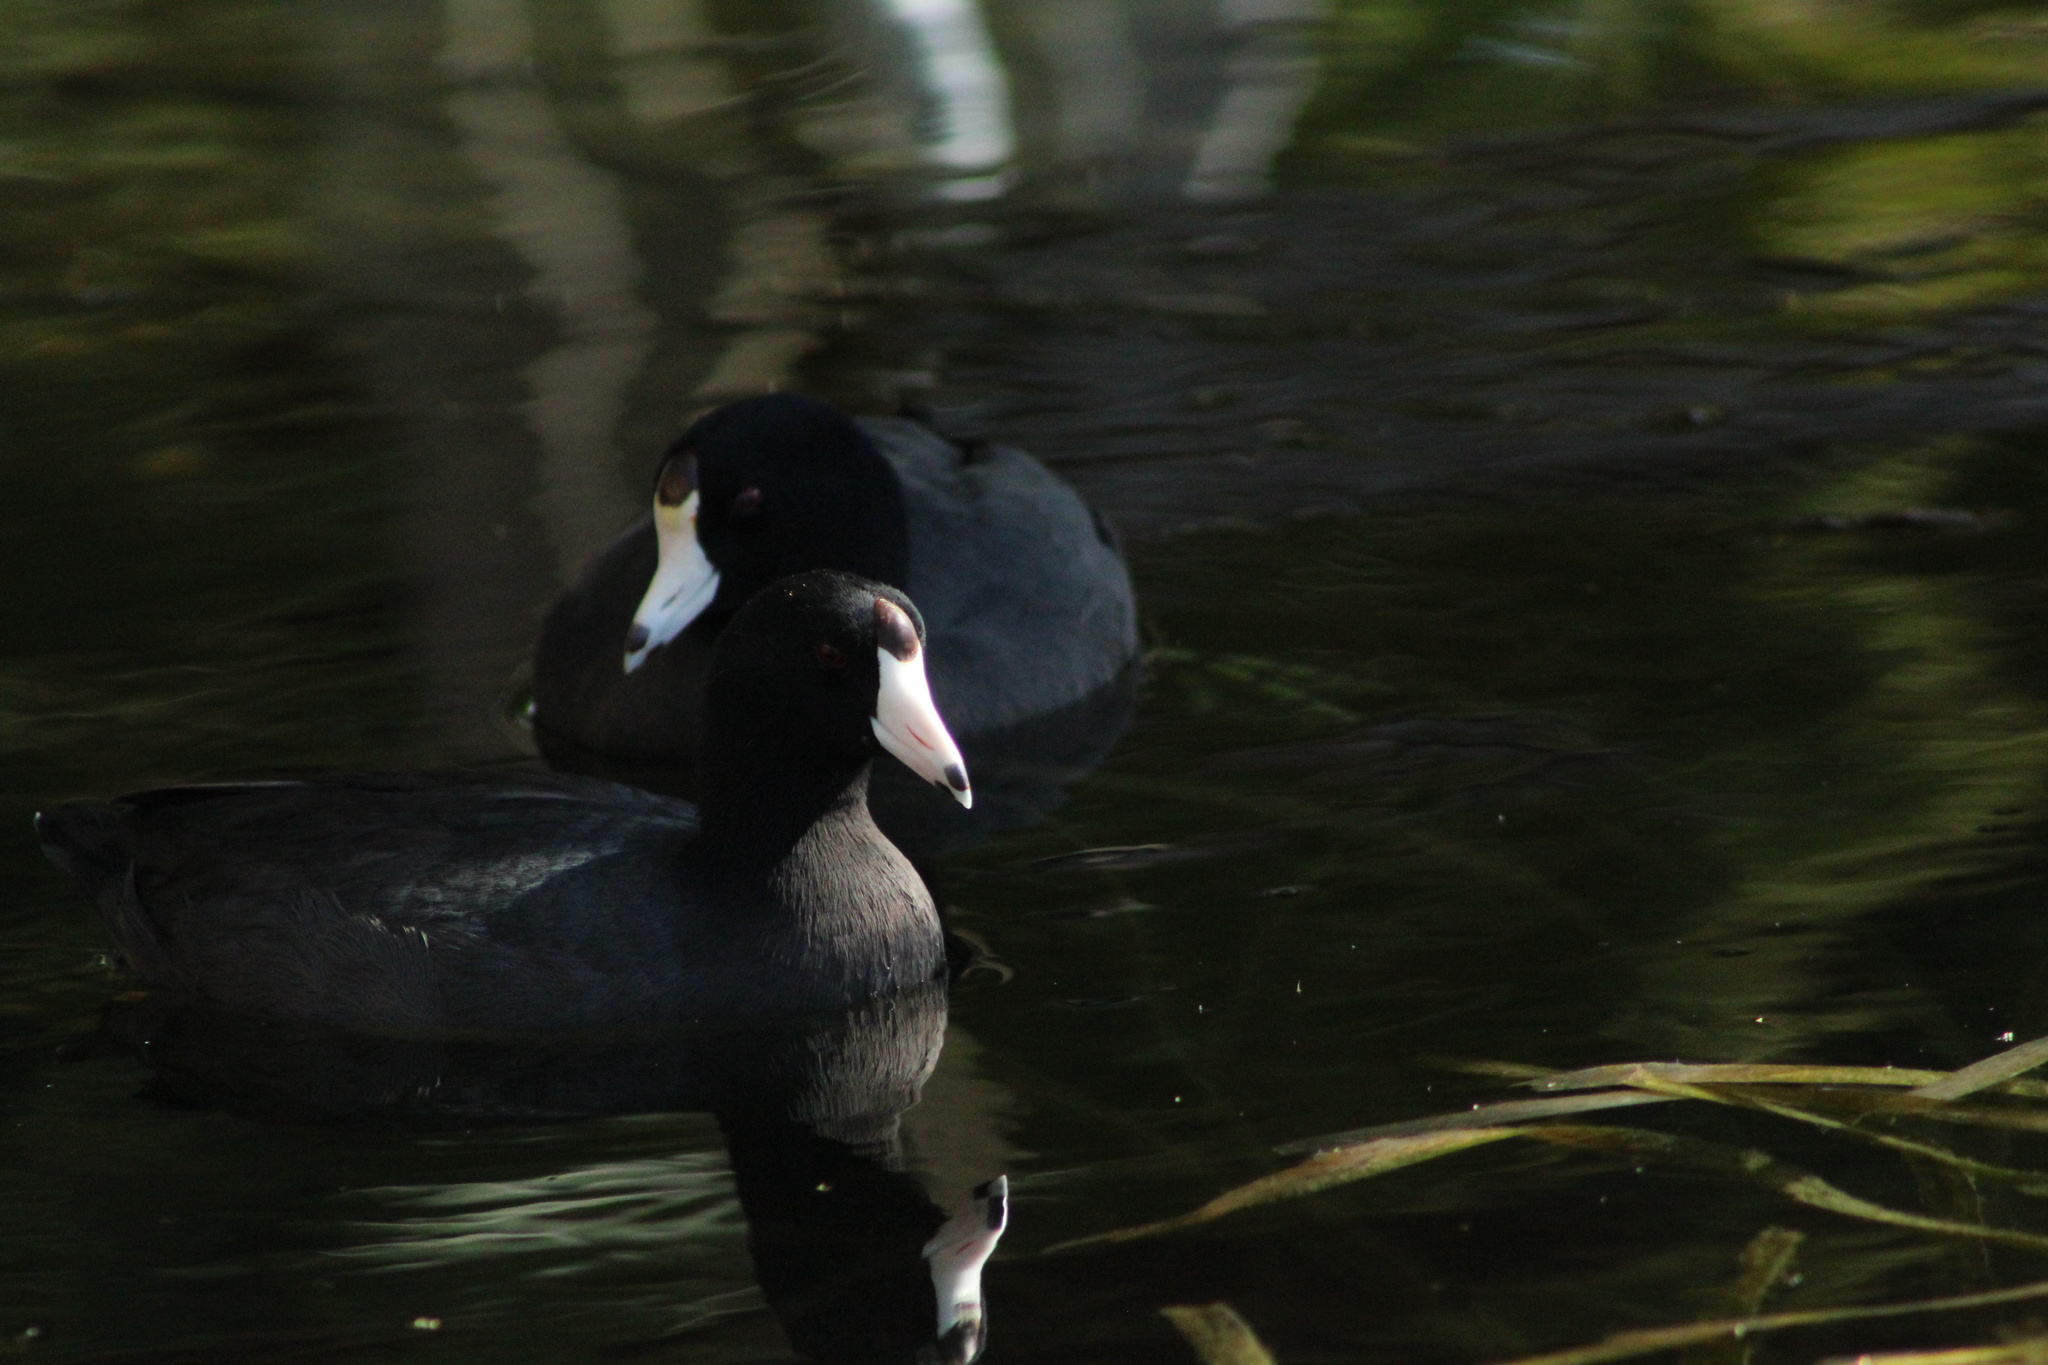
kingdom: Animalia
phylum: Chordata
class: Aves
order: Gruiformes
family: Rallidae
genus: Fulica
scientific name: Fulica americana
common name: American coot
